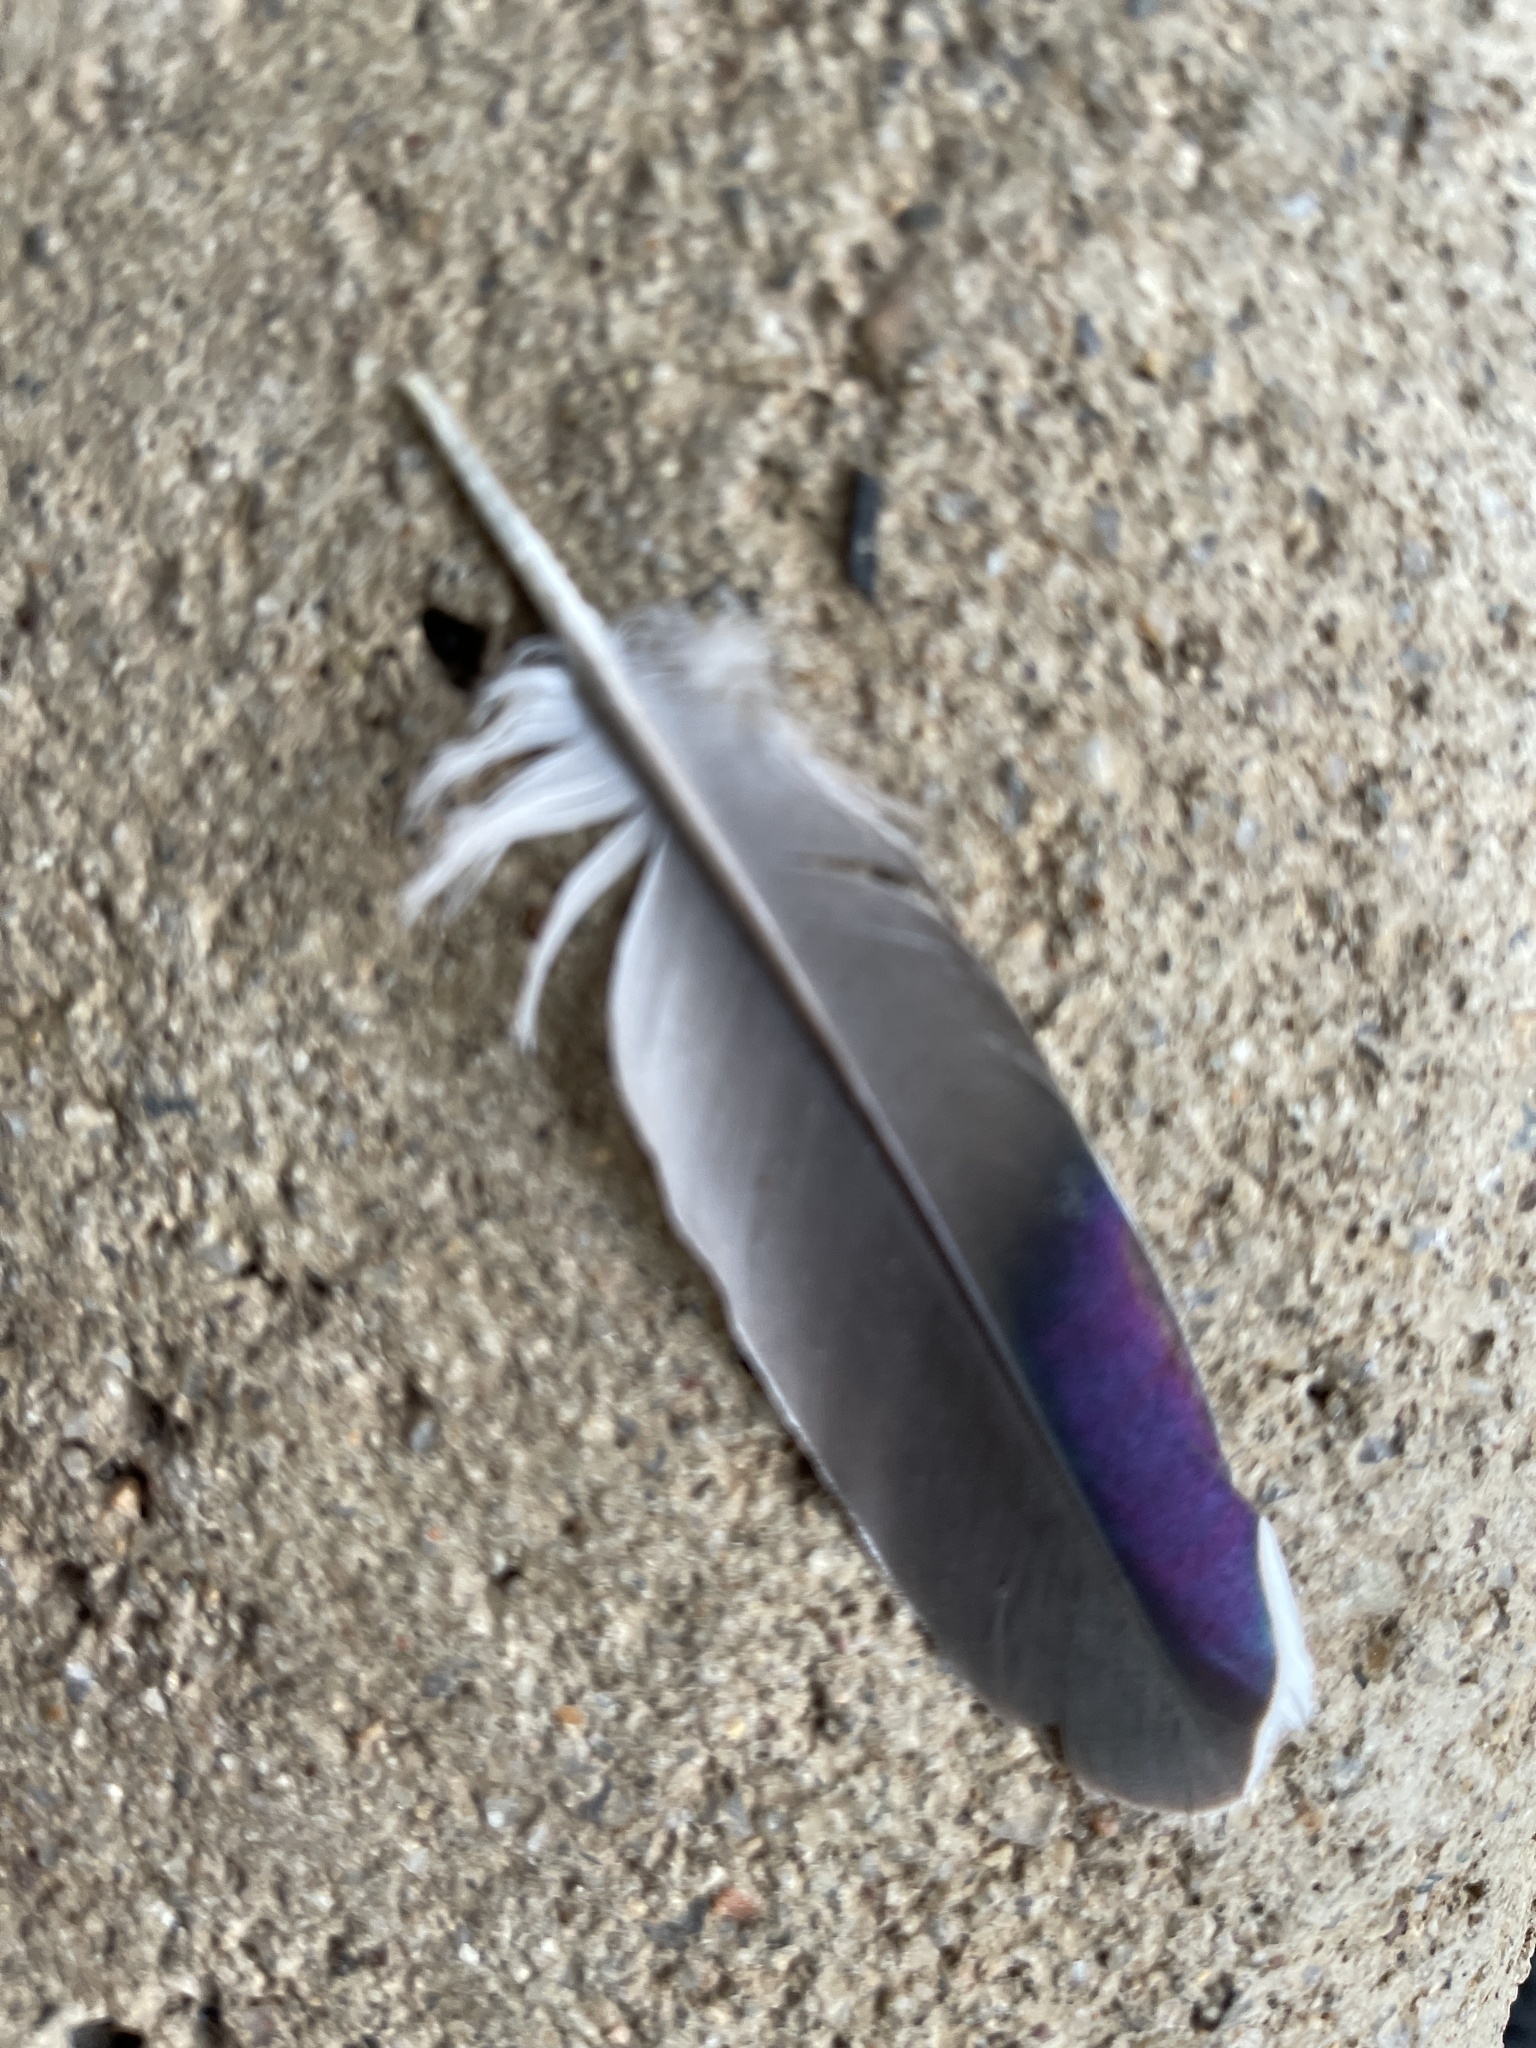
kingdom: Animalia
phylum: Chordata
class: Aves
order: Columbiformes
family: Columbidae
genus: Ocyphaps
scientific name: Ocyphaps lophotes
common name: Crested pigeon
